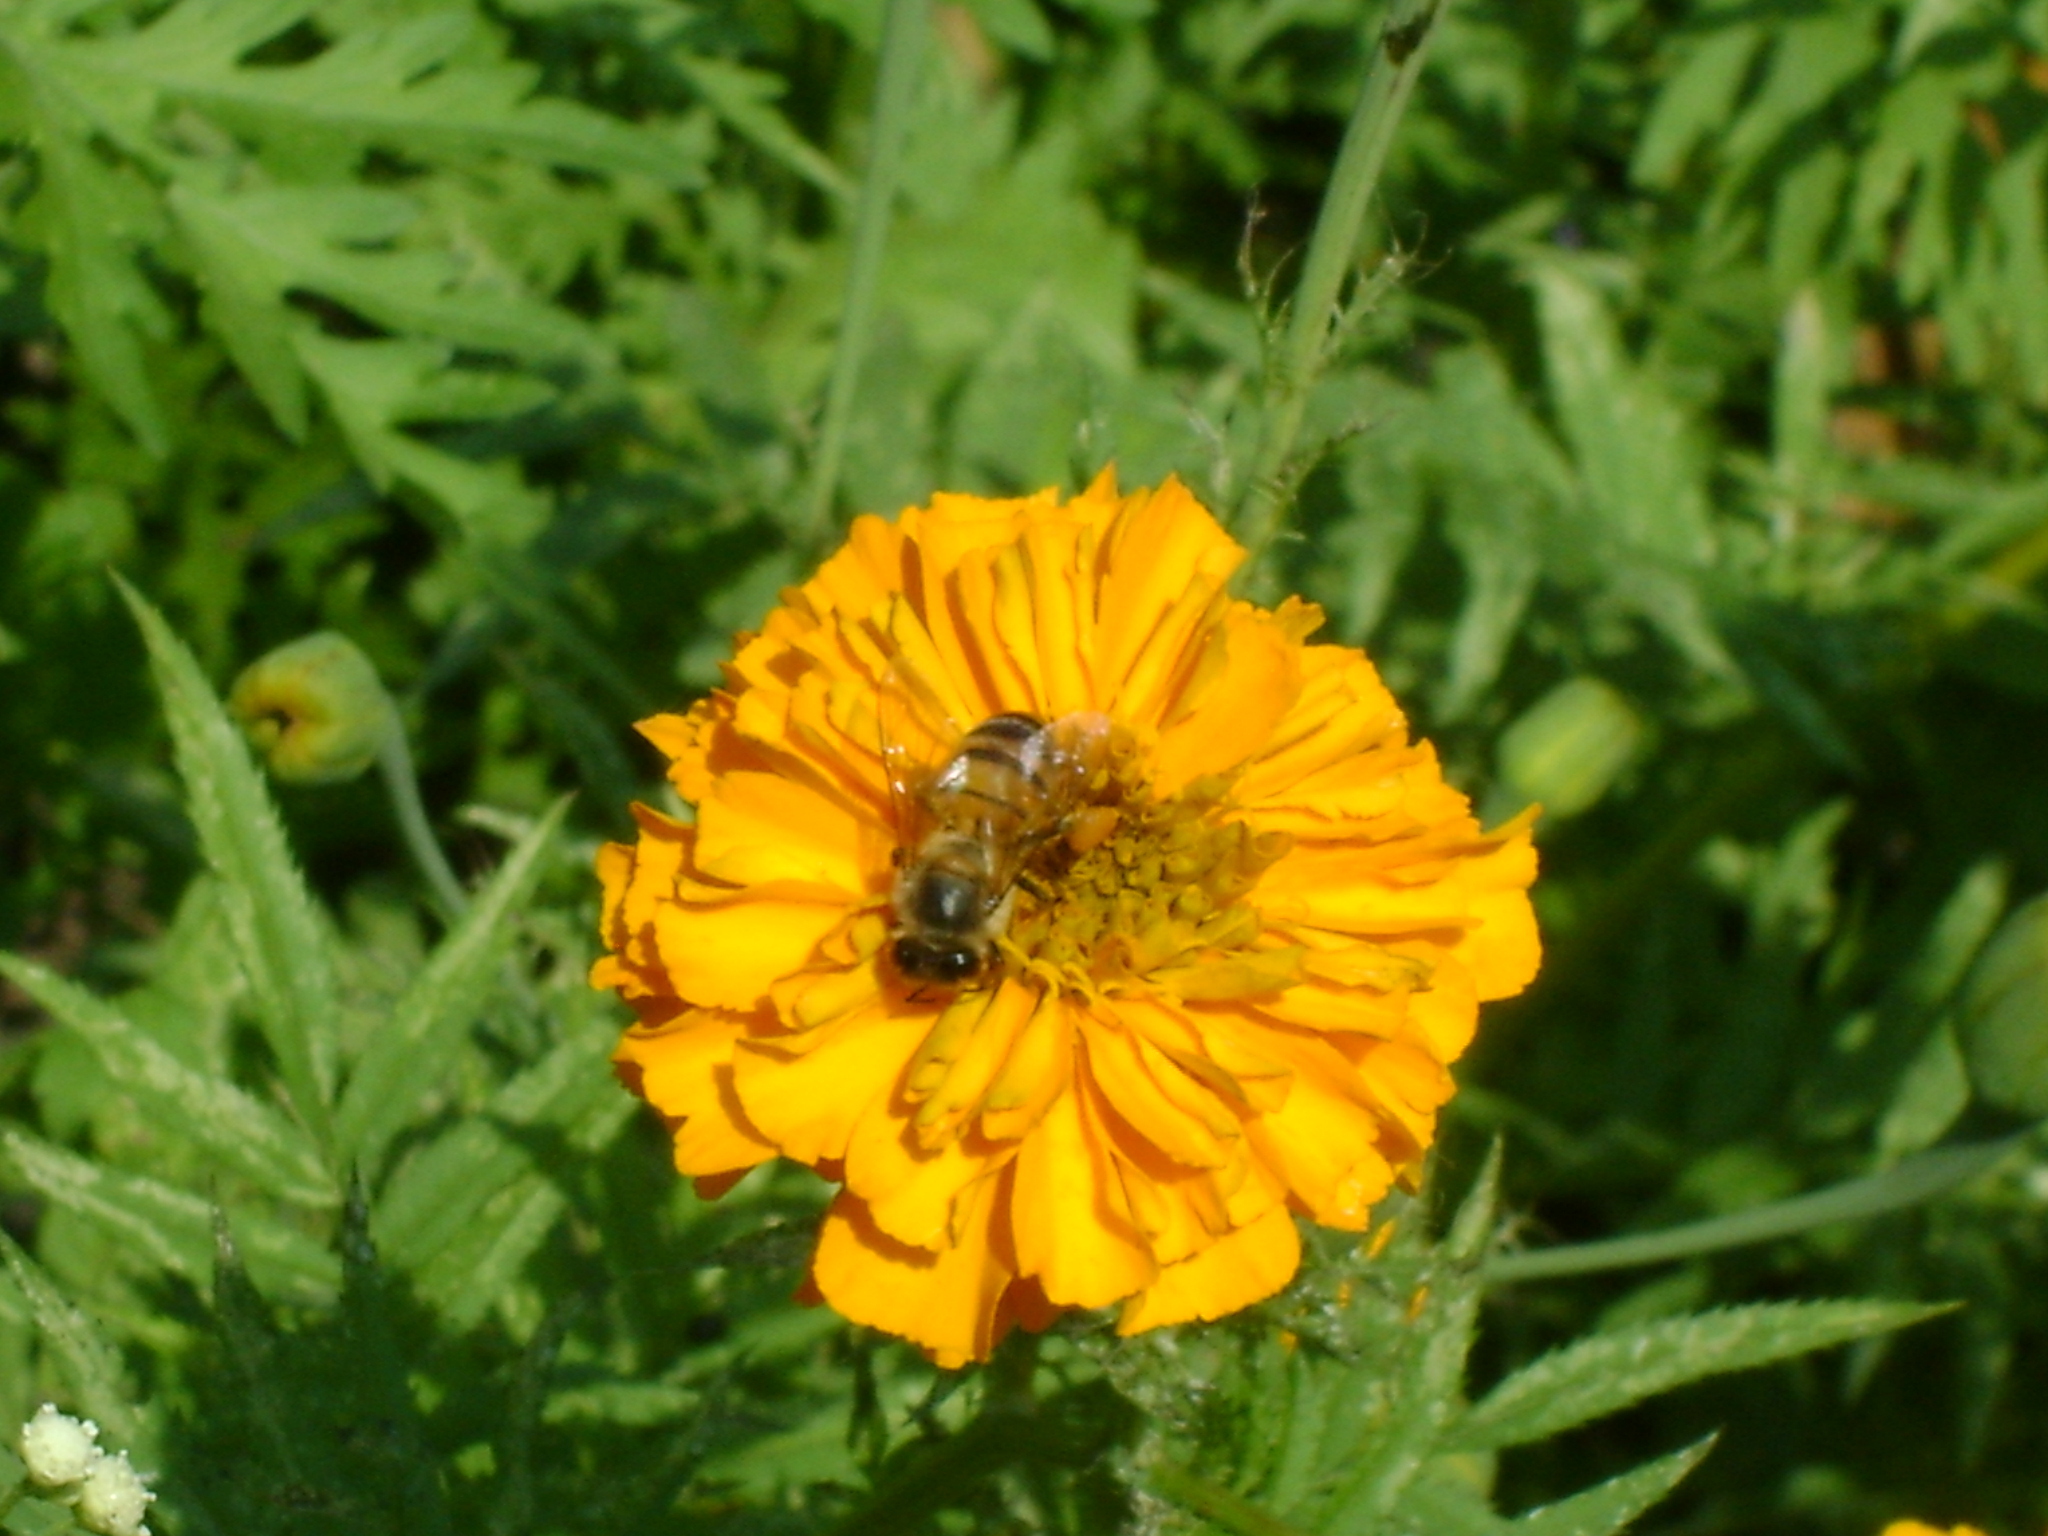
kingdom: Animalia
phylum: Arthropoda
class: Insecta
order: Hymenoptera
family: Apidae
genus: Apis
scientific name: Apis mellifera
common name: Honey bee
